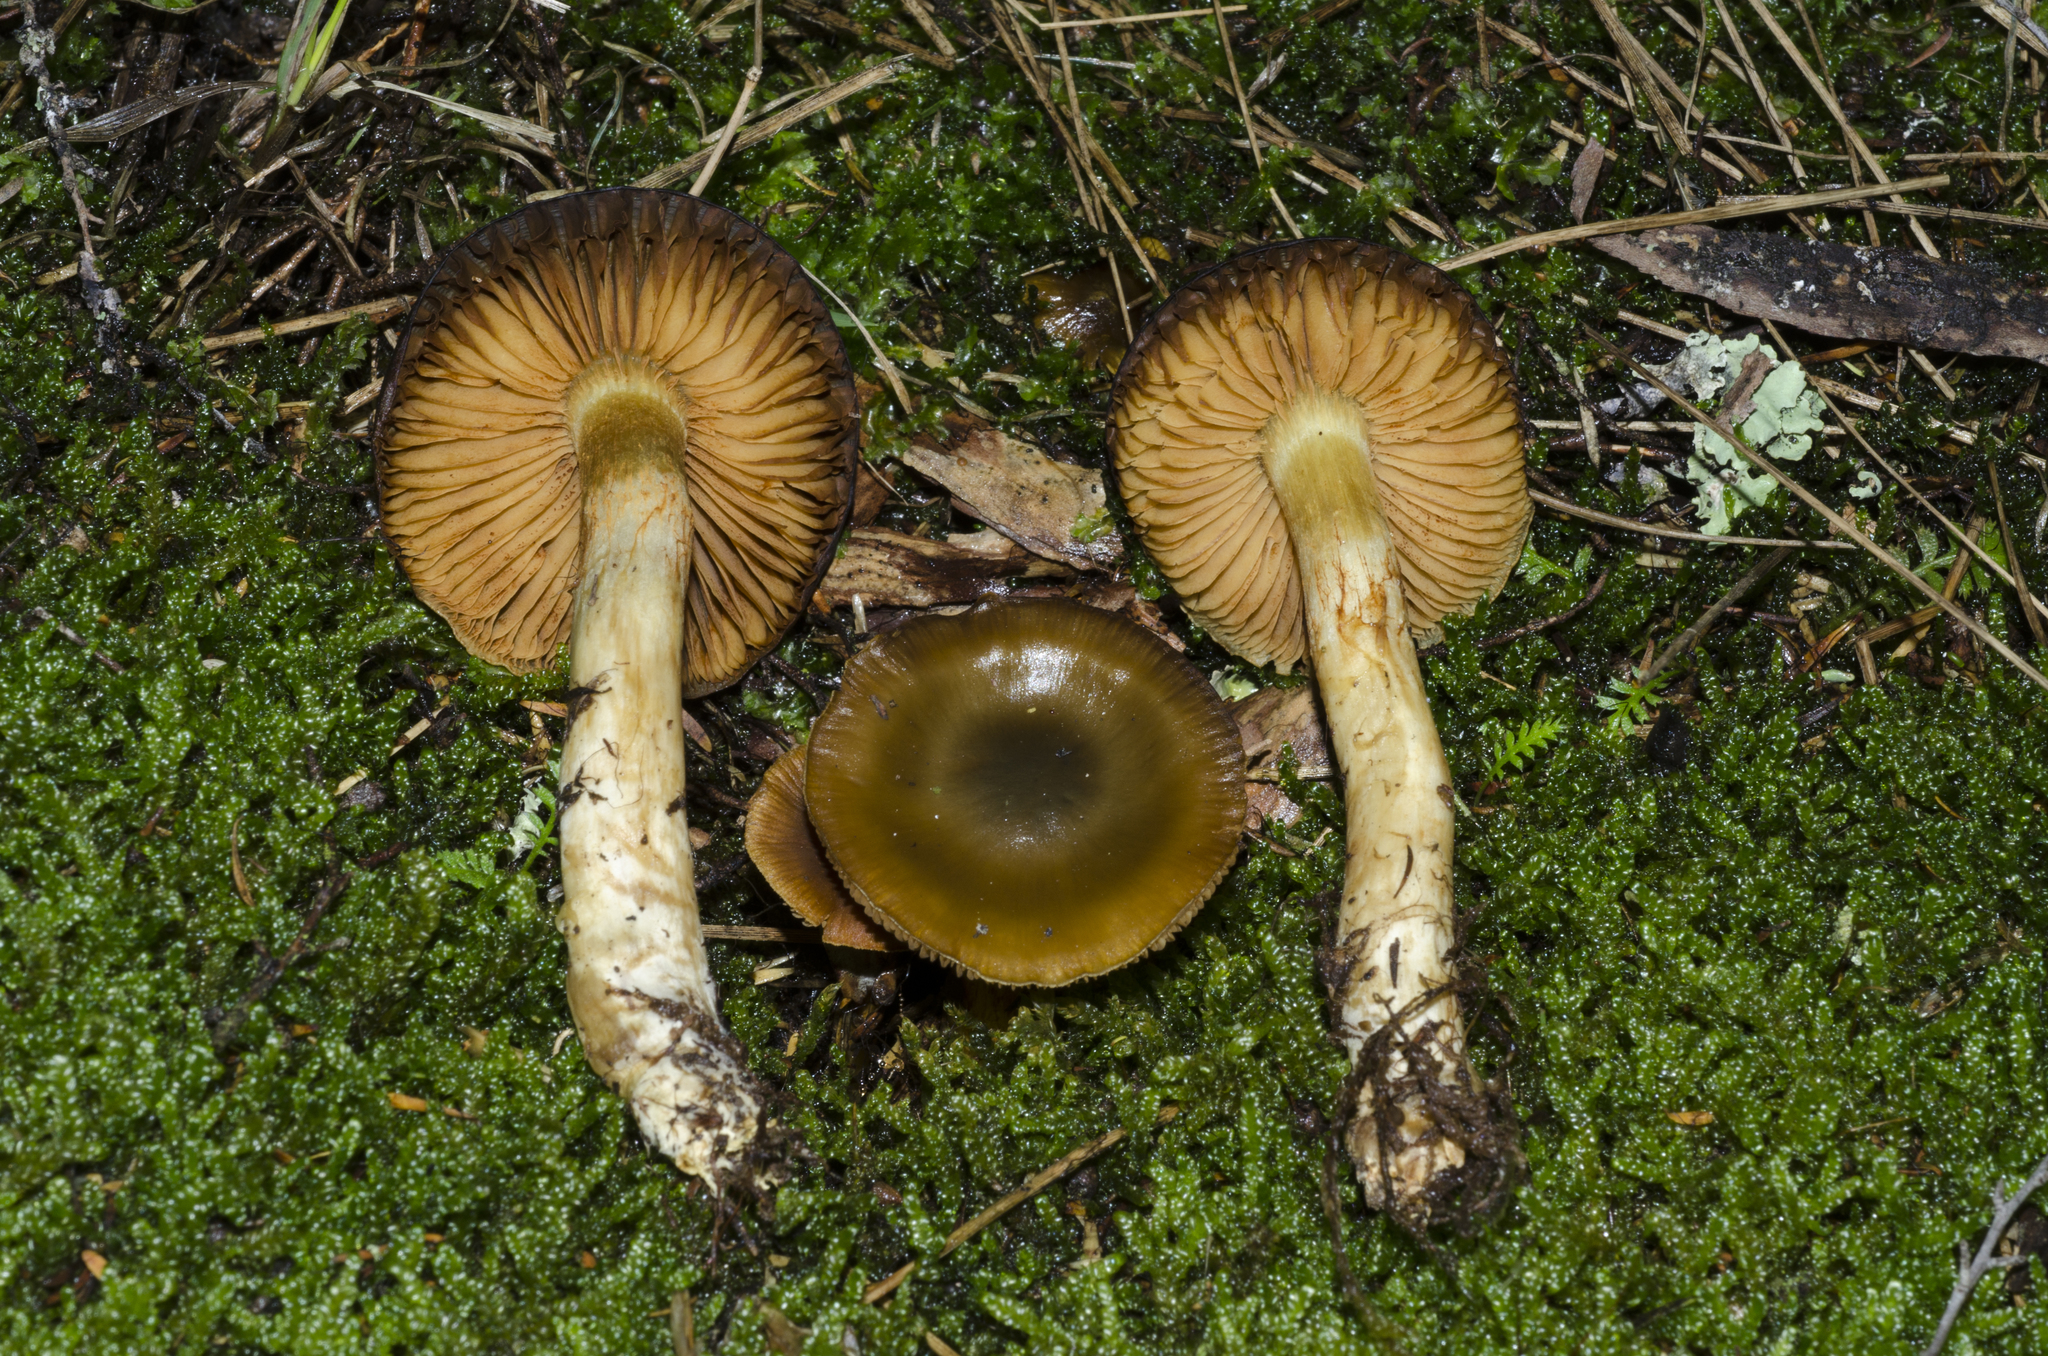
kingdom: Fungi
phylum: Basidiomycota
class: Agaricomycetes
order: Agaricales
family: Cortinariaceae
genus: Cortinarius
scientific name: Cortinarius alienatus
